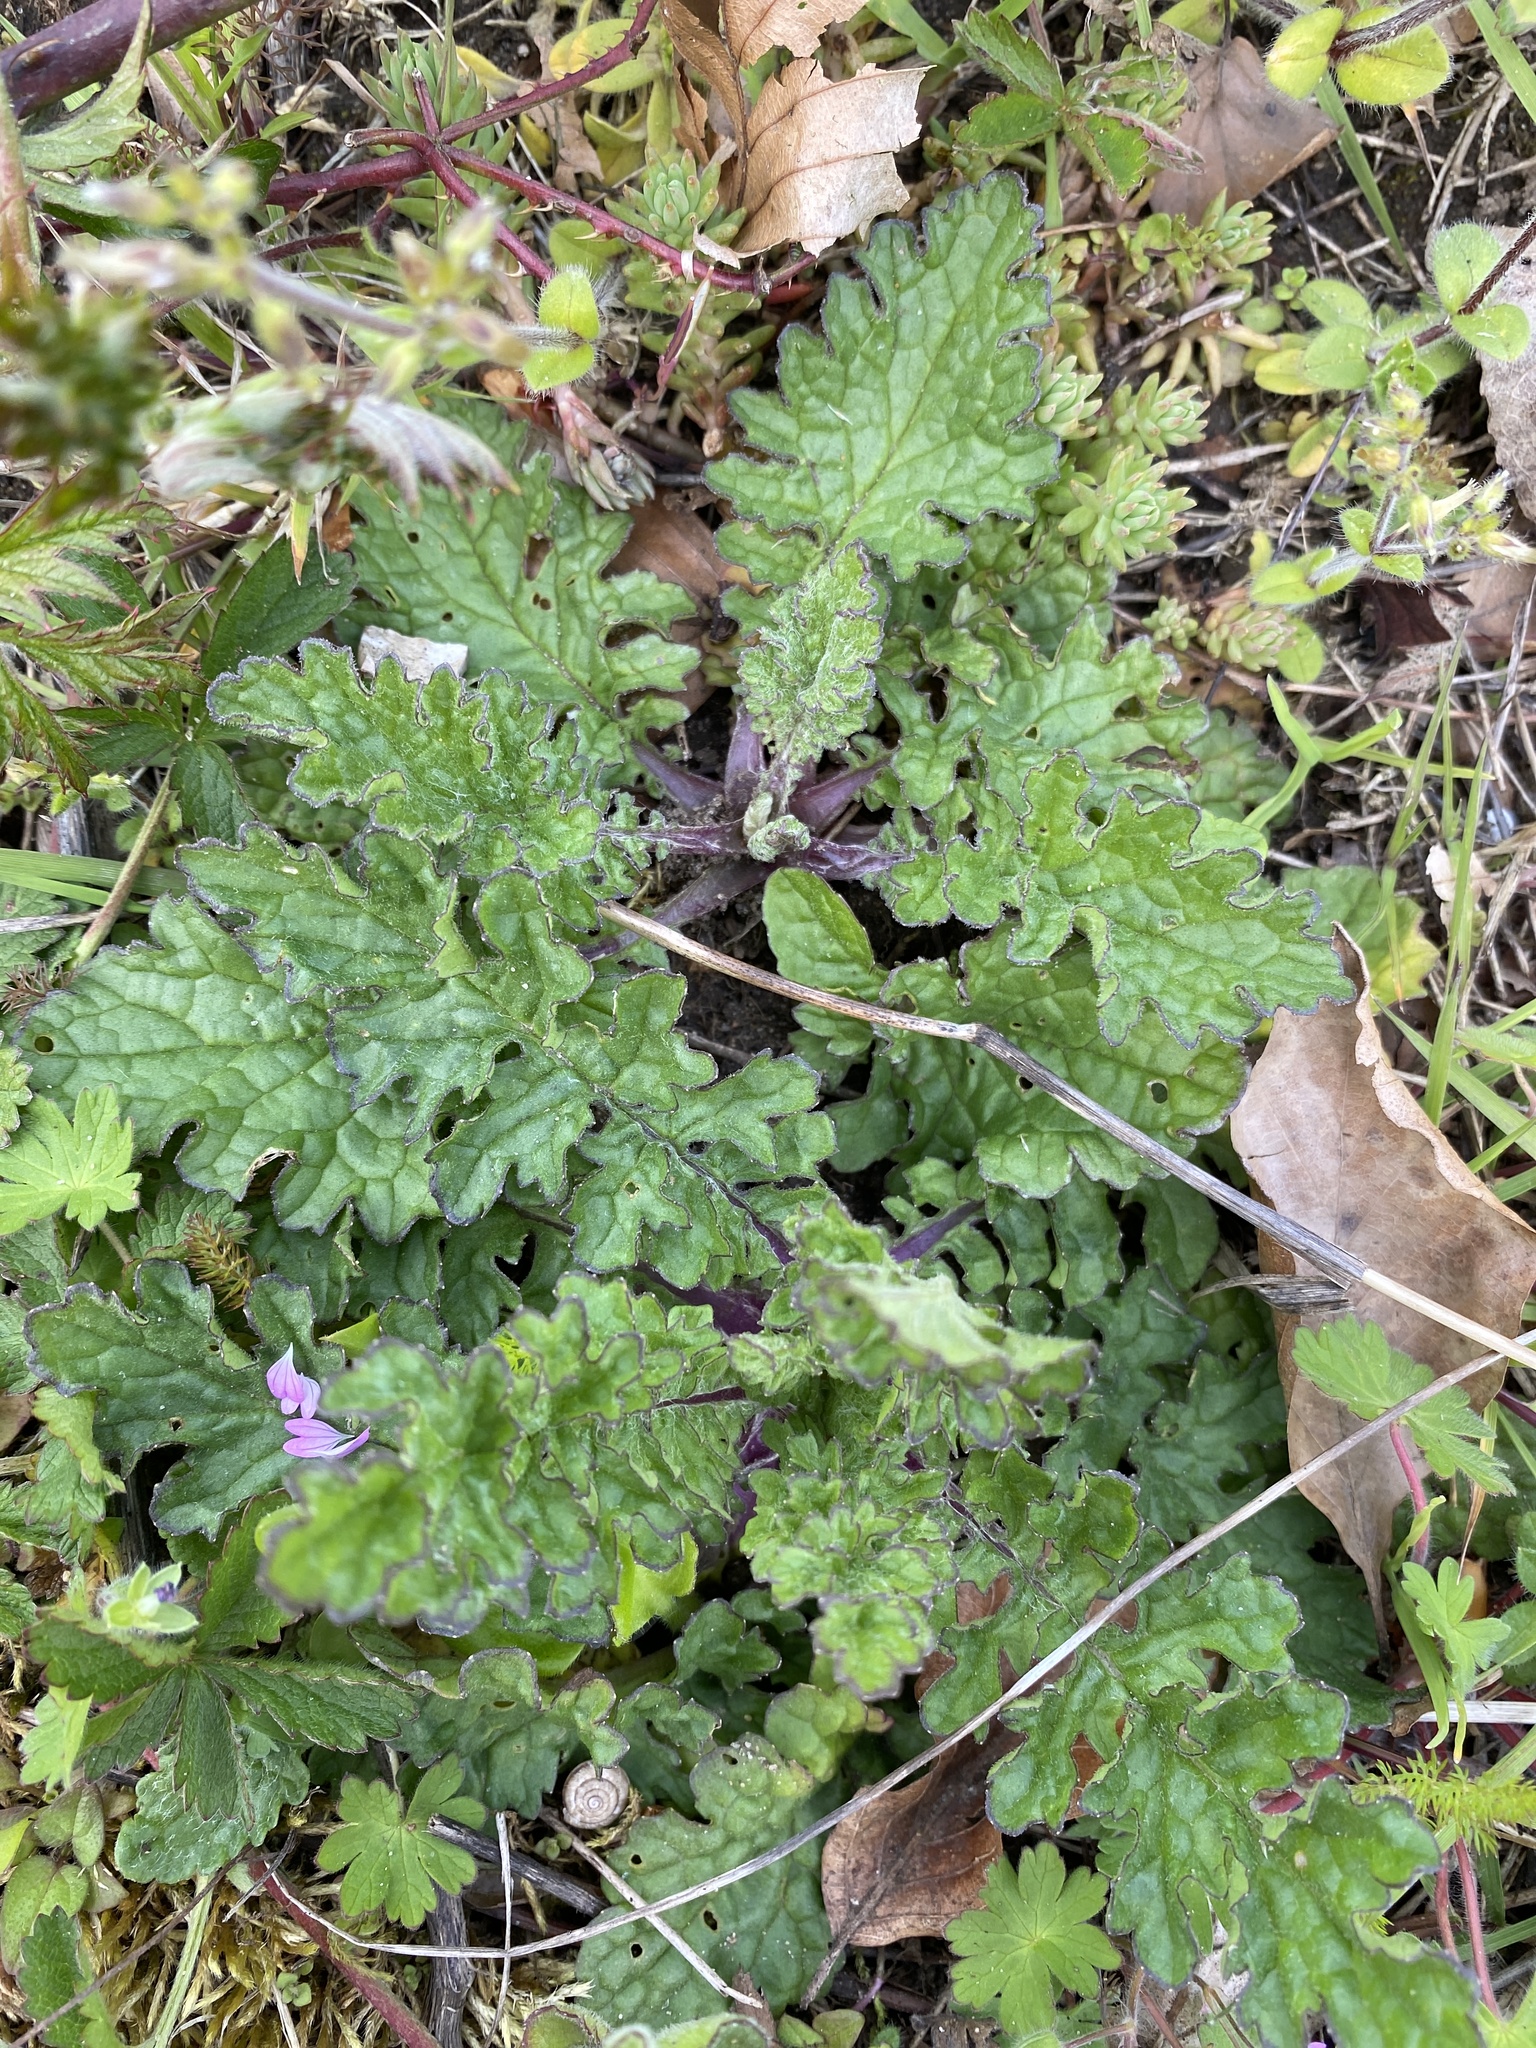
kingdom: Plantae
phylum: Tracheophyta
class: Magnoliopsida
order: Asterales
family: Asteraceae
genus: Jacobaea
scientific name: Jacobaea vulgaris
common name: Stinking willie
